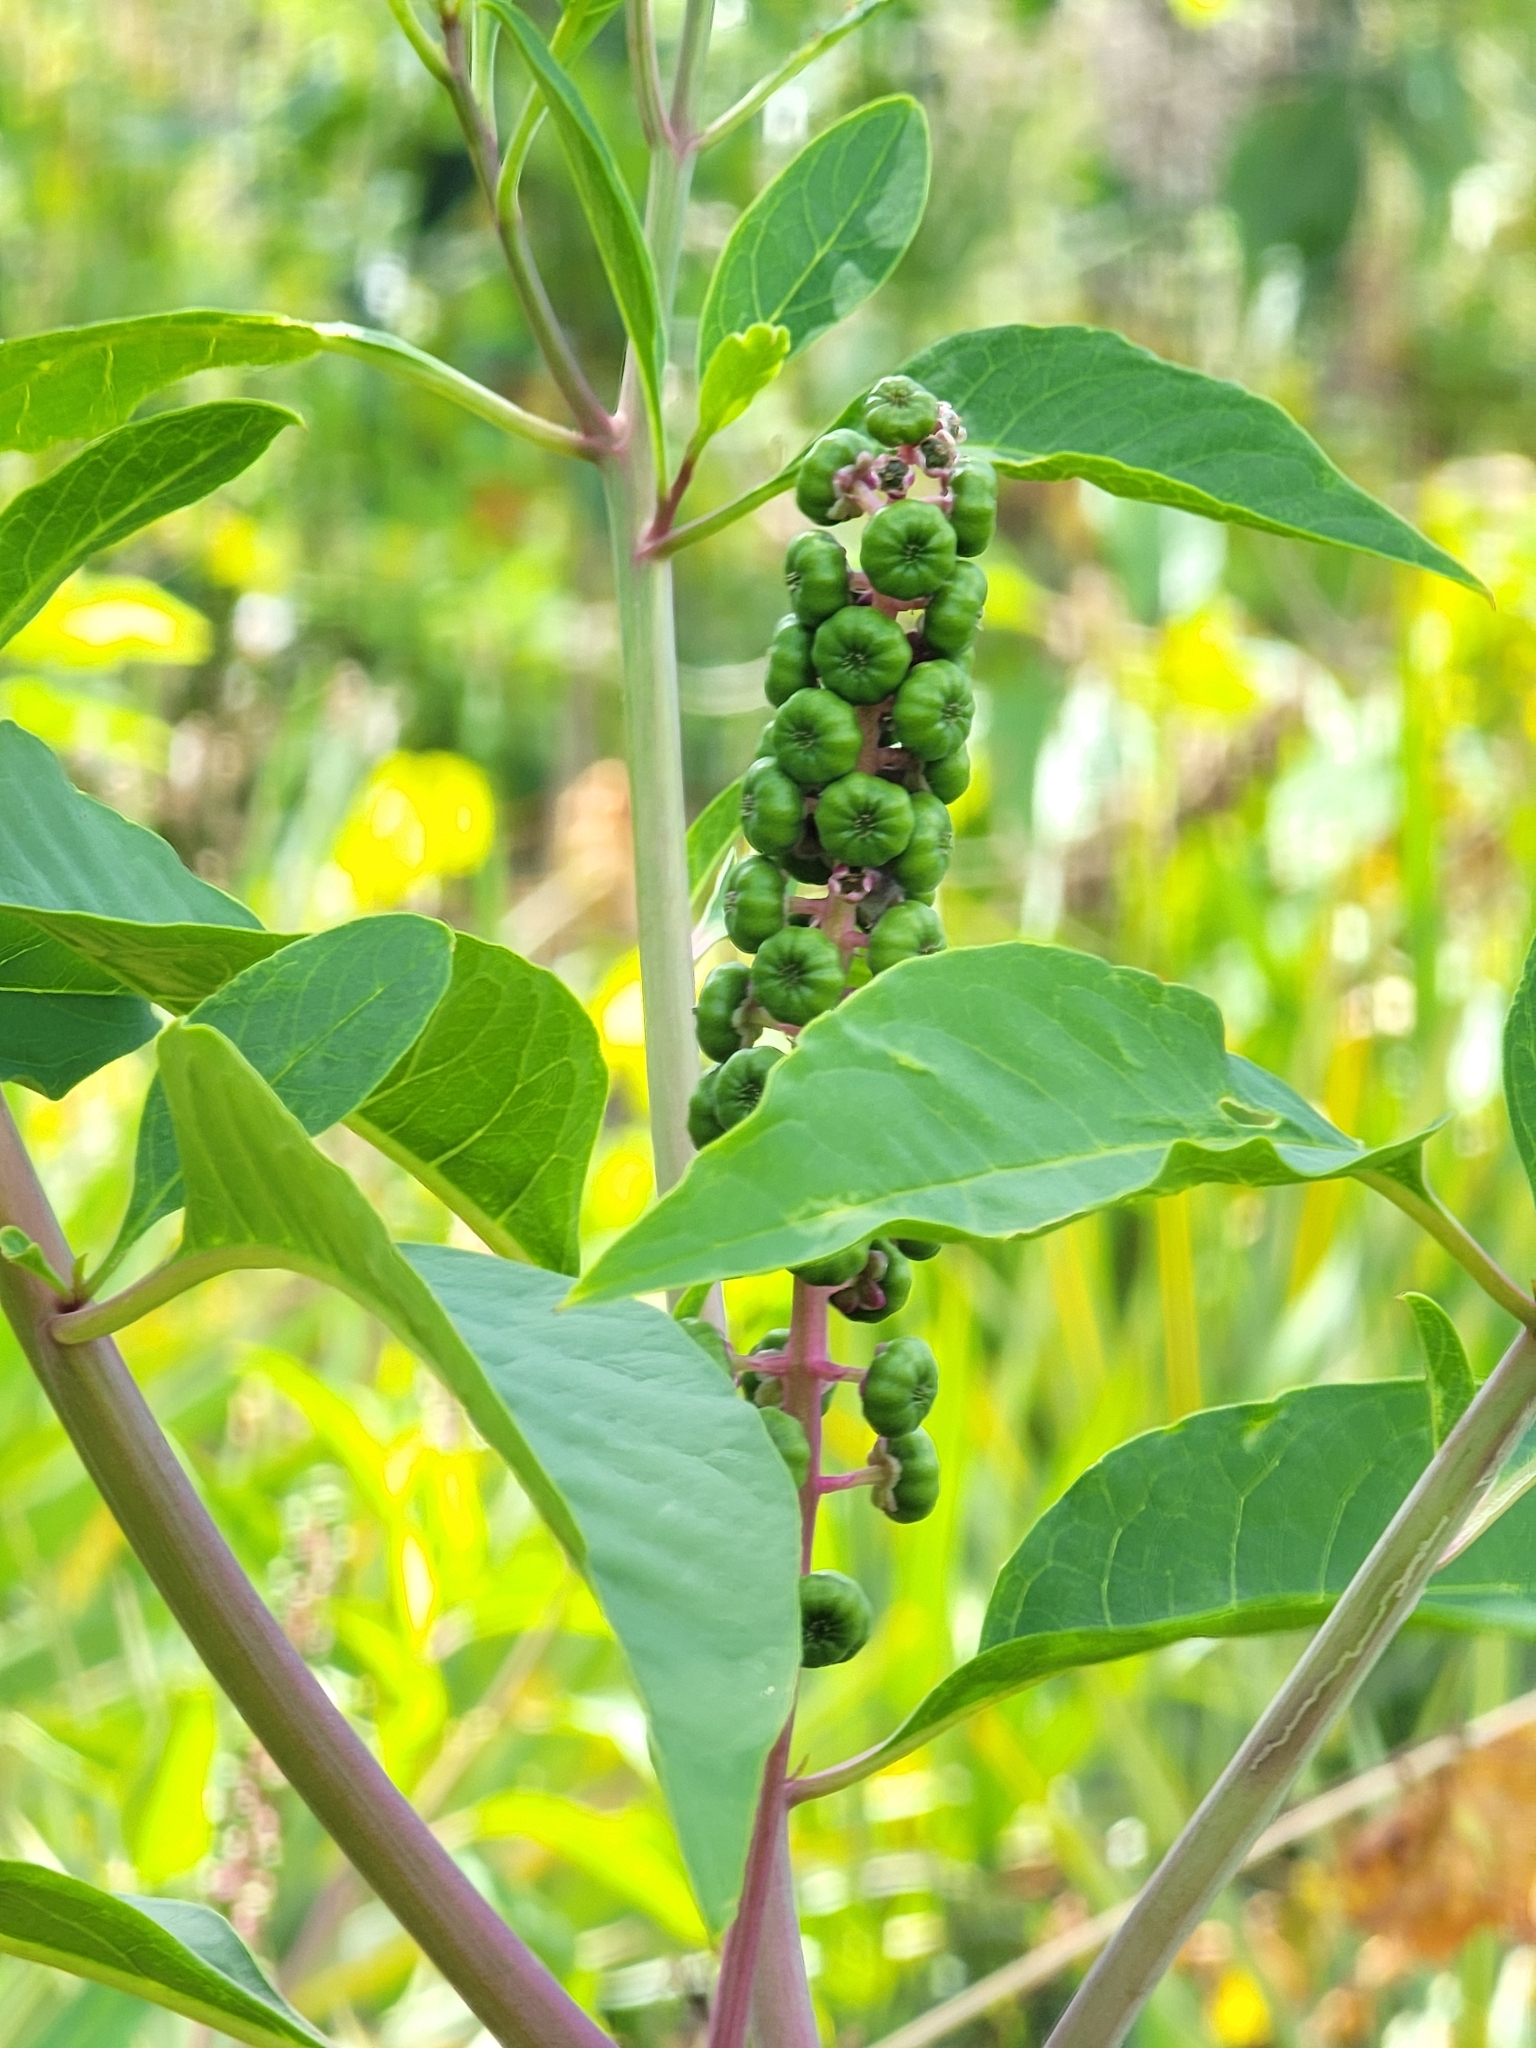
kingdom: Plantae
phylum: Tracheophyta
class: Magnoliopsida
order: Caryophyllales
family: Phytolaccaceae
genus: Phytolacca
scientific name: Phytolacca americana
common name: American pokeweed
